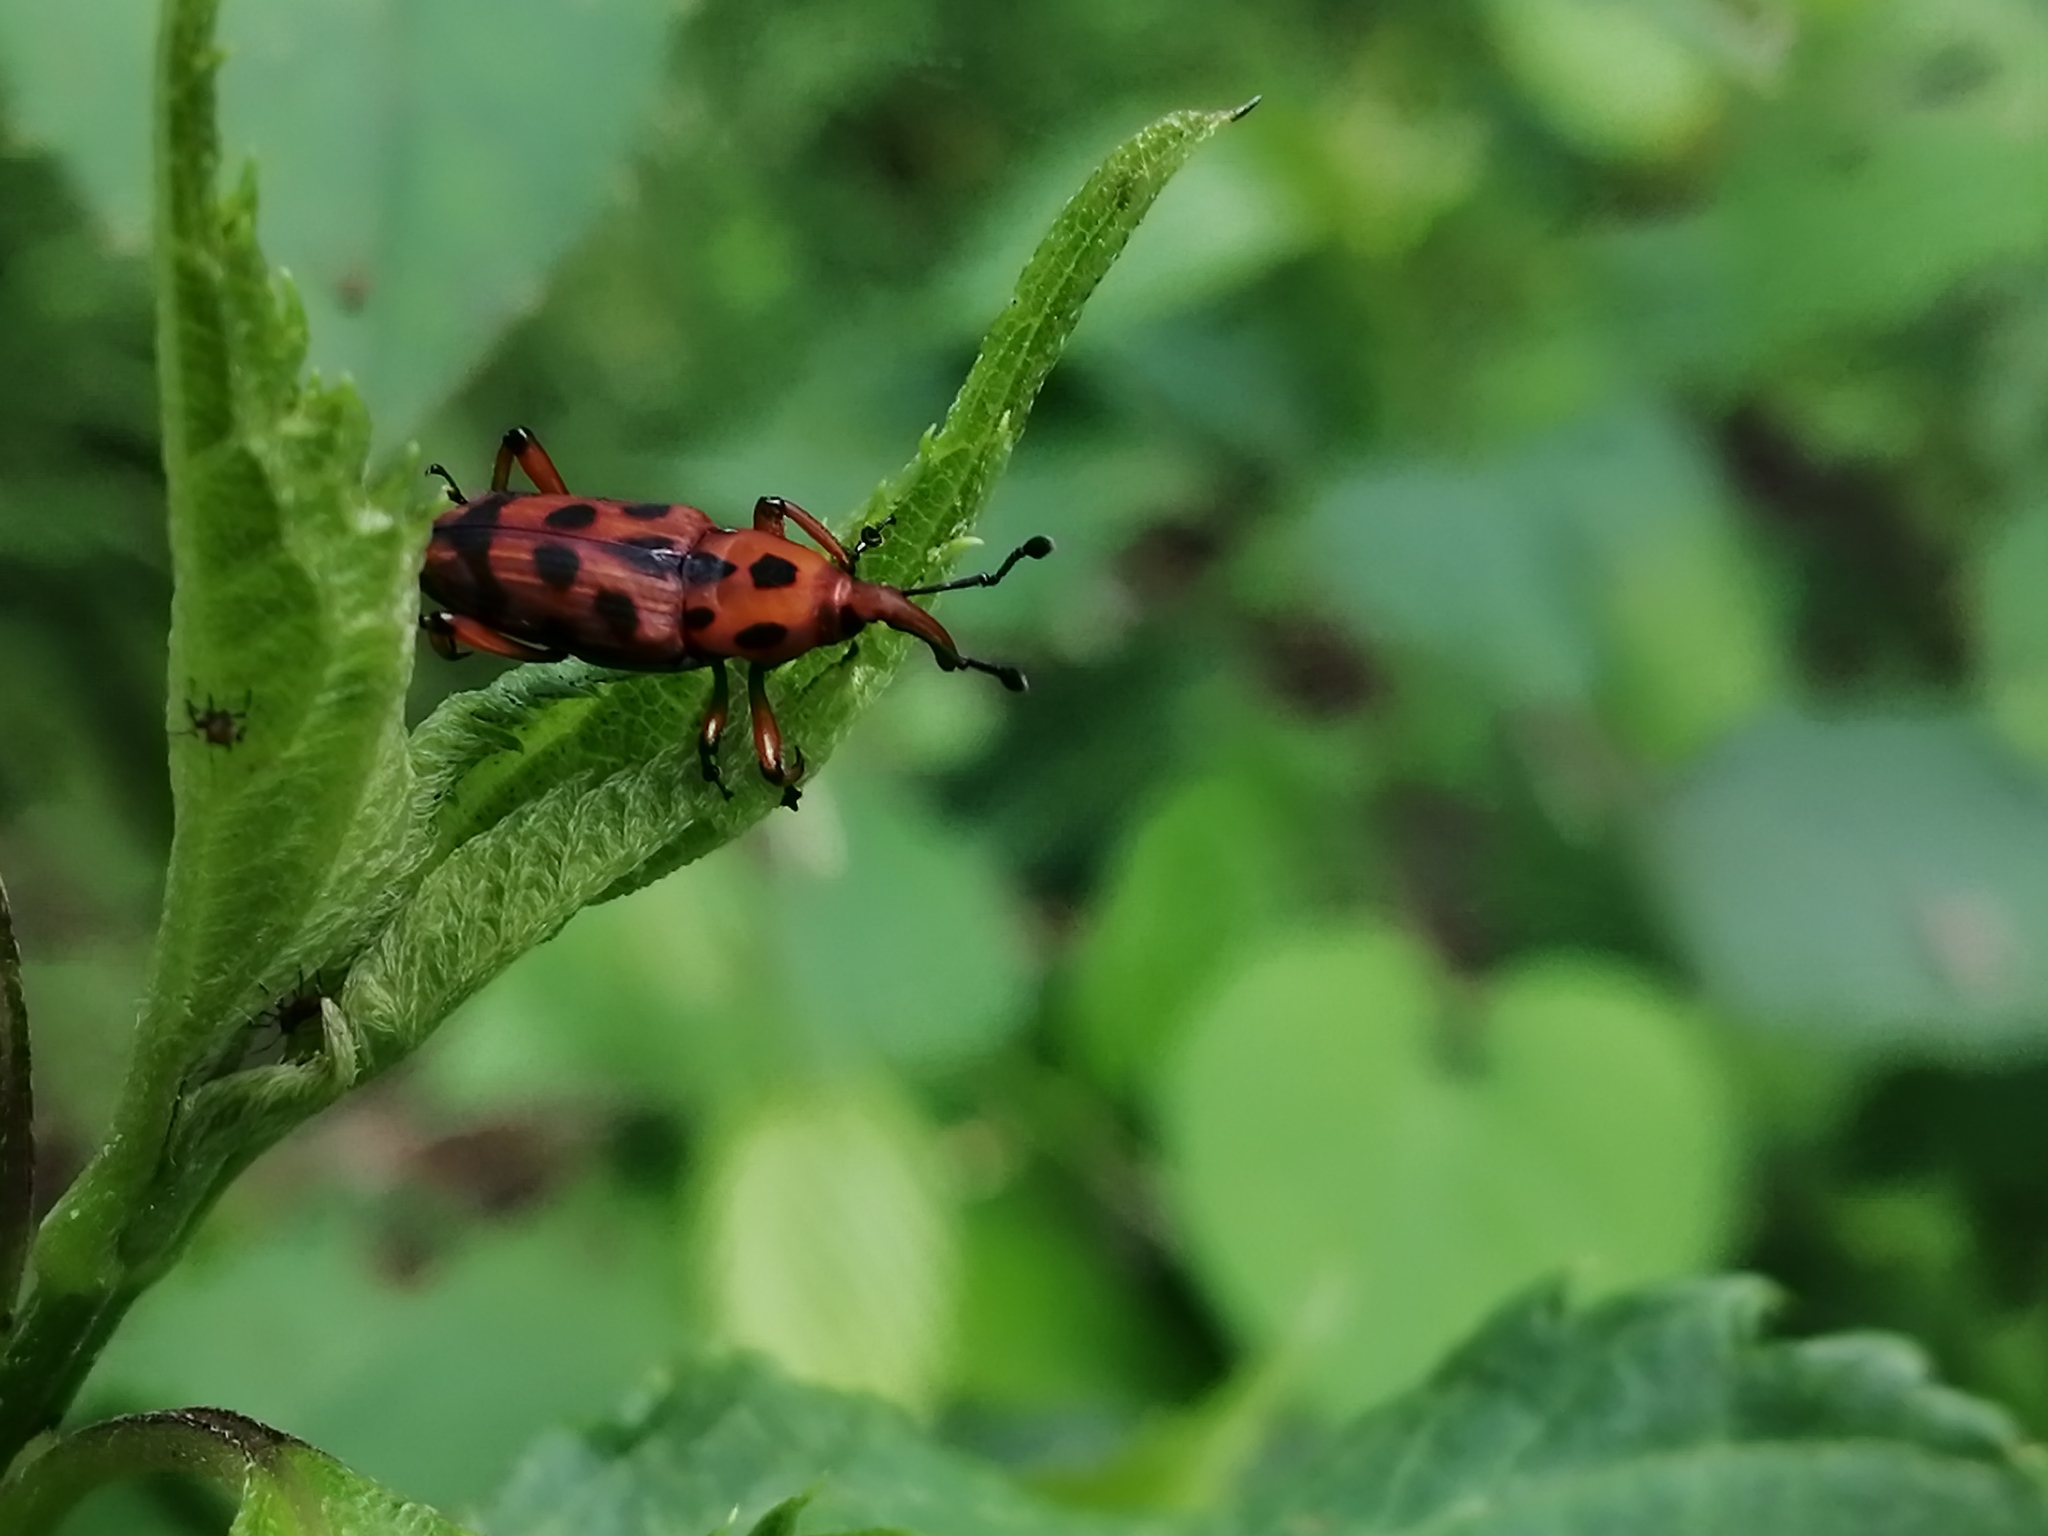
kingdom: Animalia
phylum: Arthropoda
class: Insecta
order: Coleoptera
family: Dryophthoridae
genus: Rhodobaenus
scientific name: Rhodobaenus pantherinus
